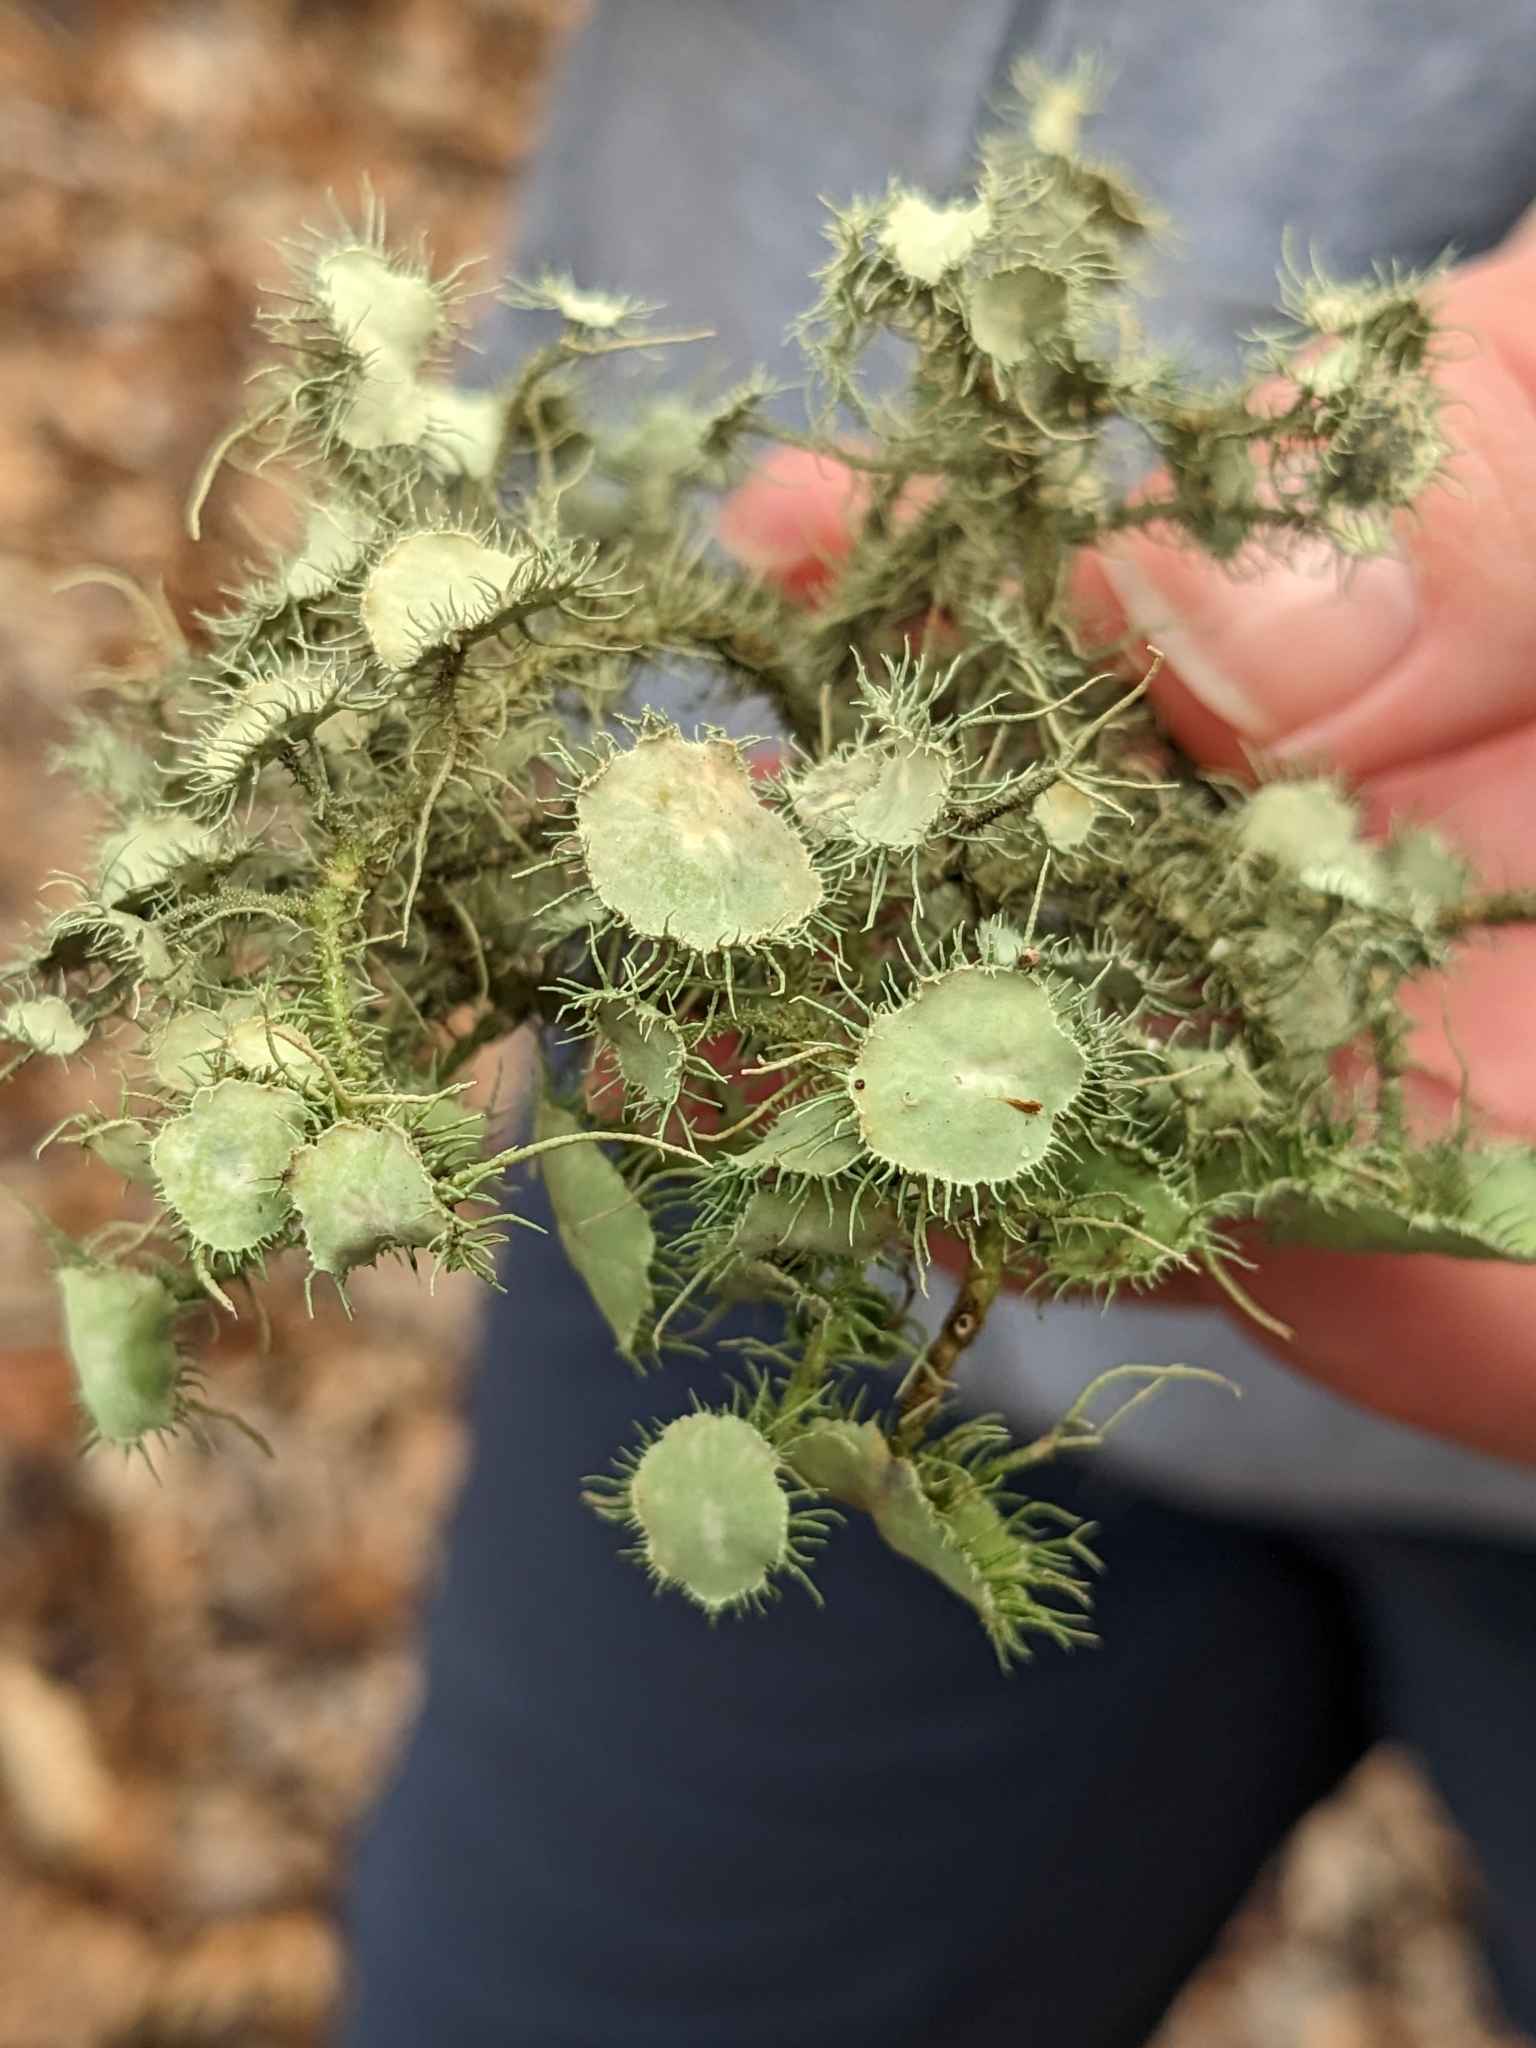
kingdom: Fungi
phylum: Ascomycota
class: Lecanoromycetes
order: Lecanorales
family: Parmeliaceae
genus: Usnea
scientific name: Usnea strigosa
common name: Bushy beard lichen
